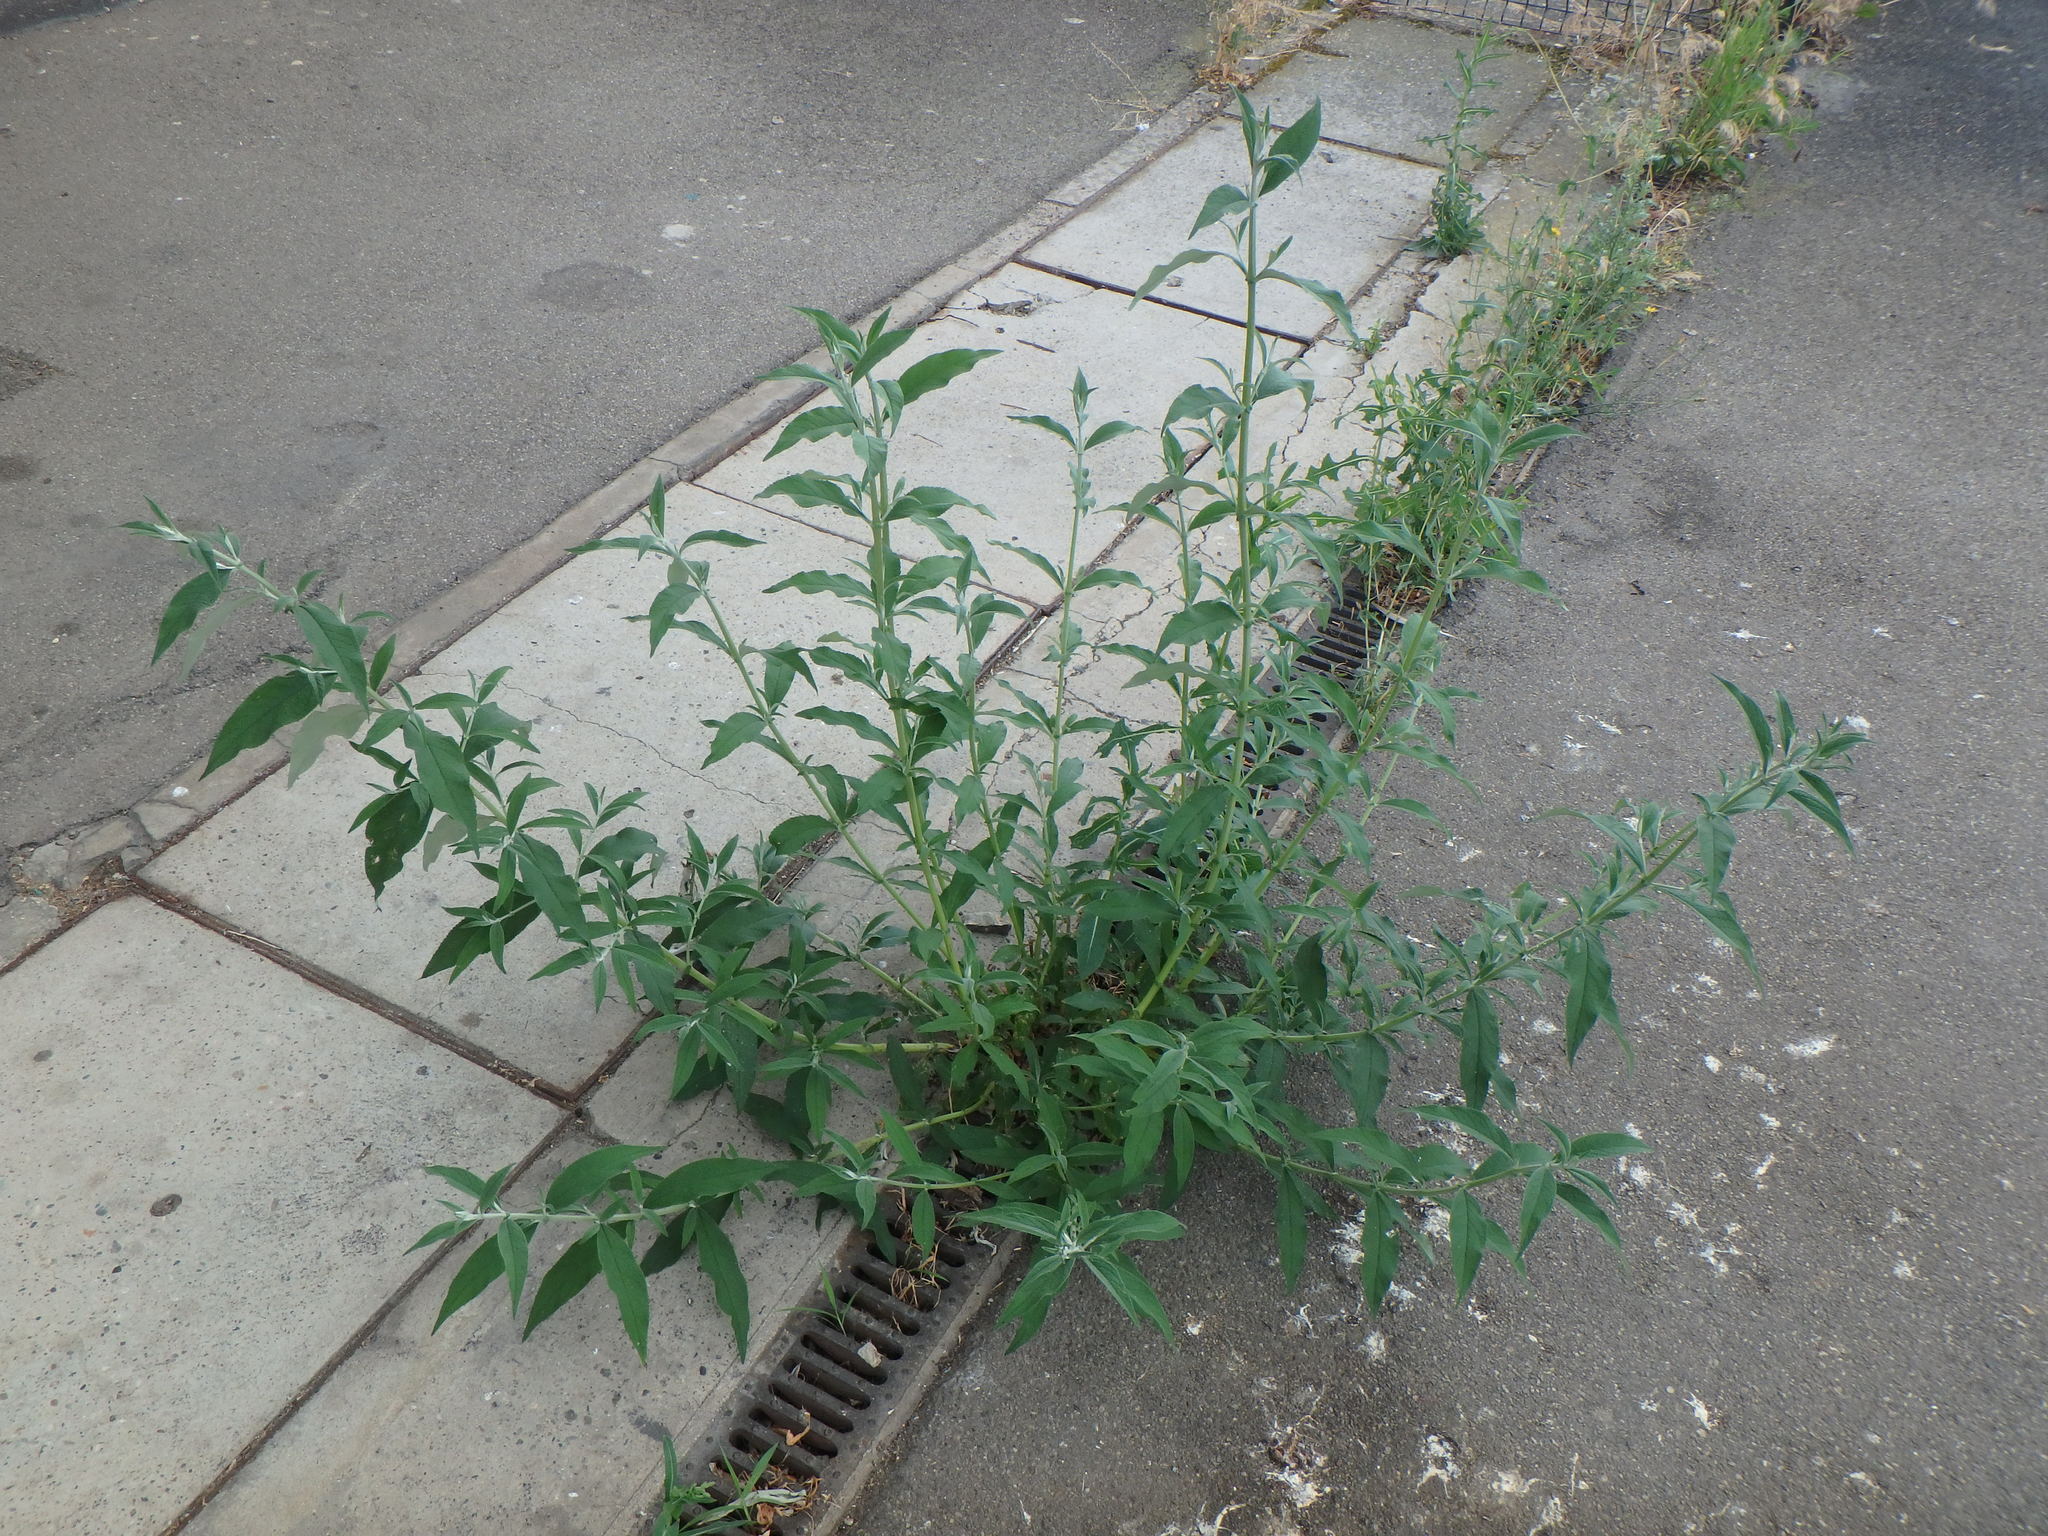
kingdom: Plantae
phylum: Tracheophyta
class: Magnoliopsida
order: Lamiales
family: Scrophulariaceae
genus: Buddleja
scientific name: Buddleja davidii
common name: Butterfly-bush
